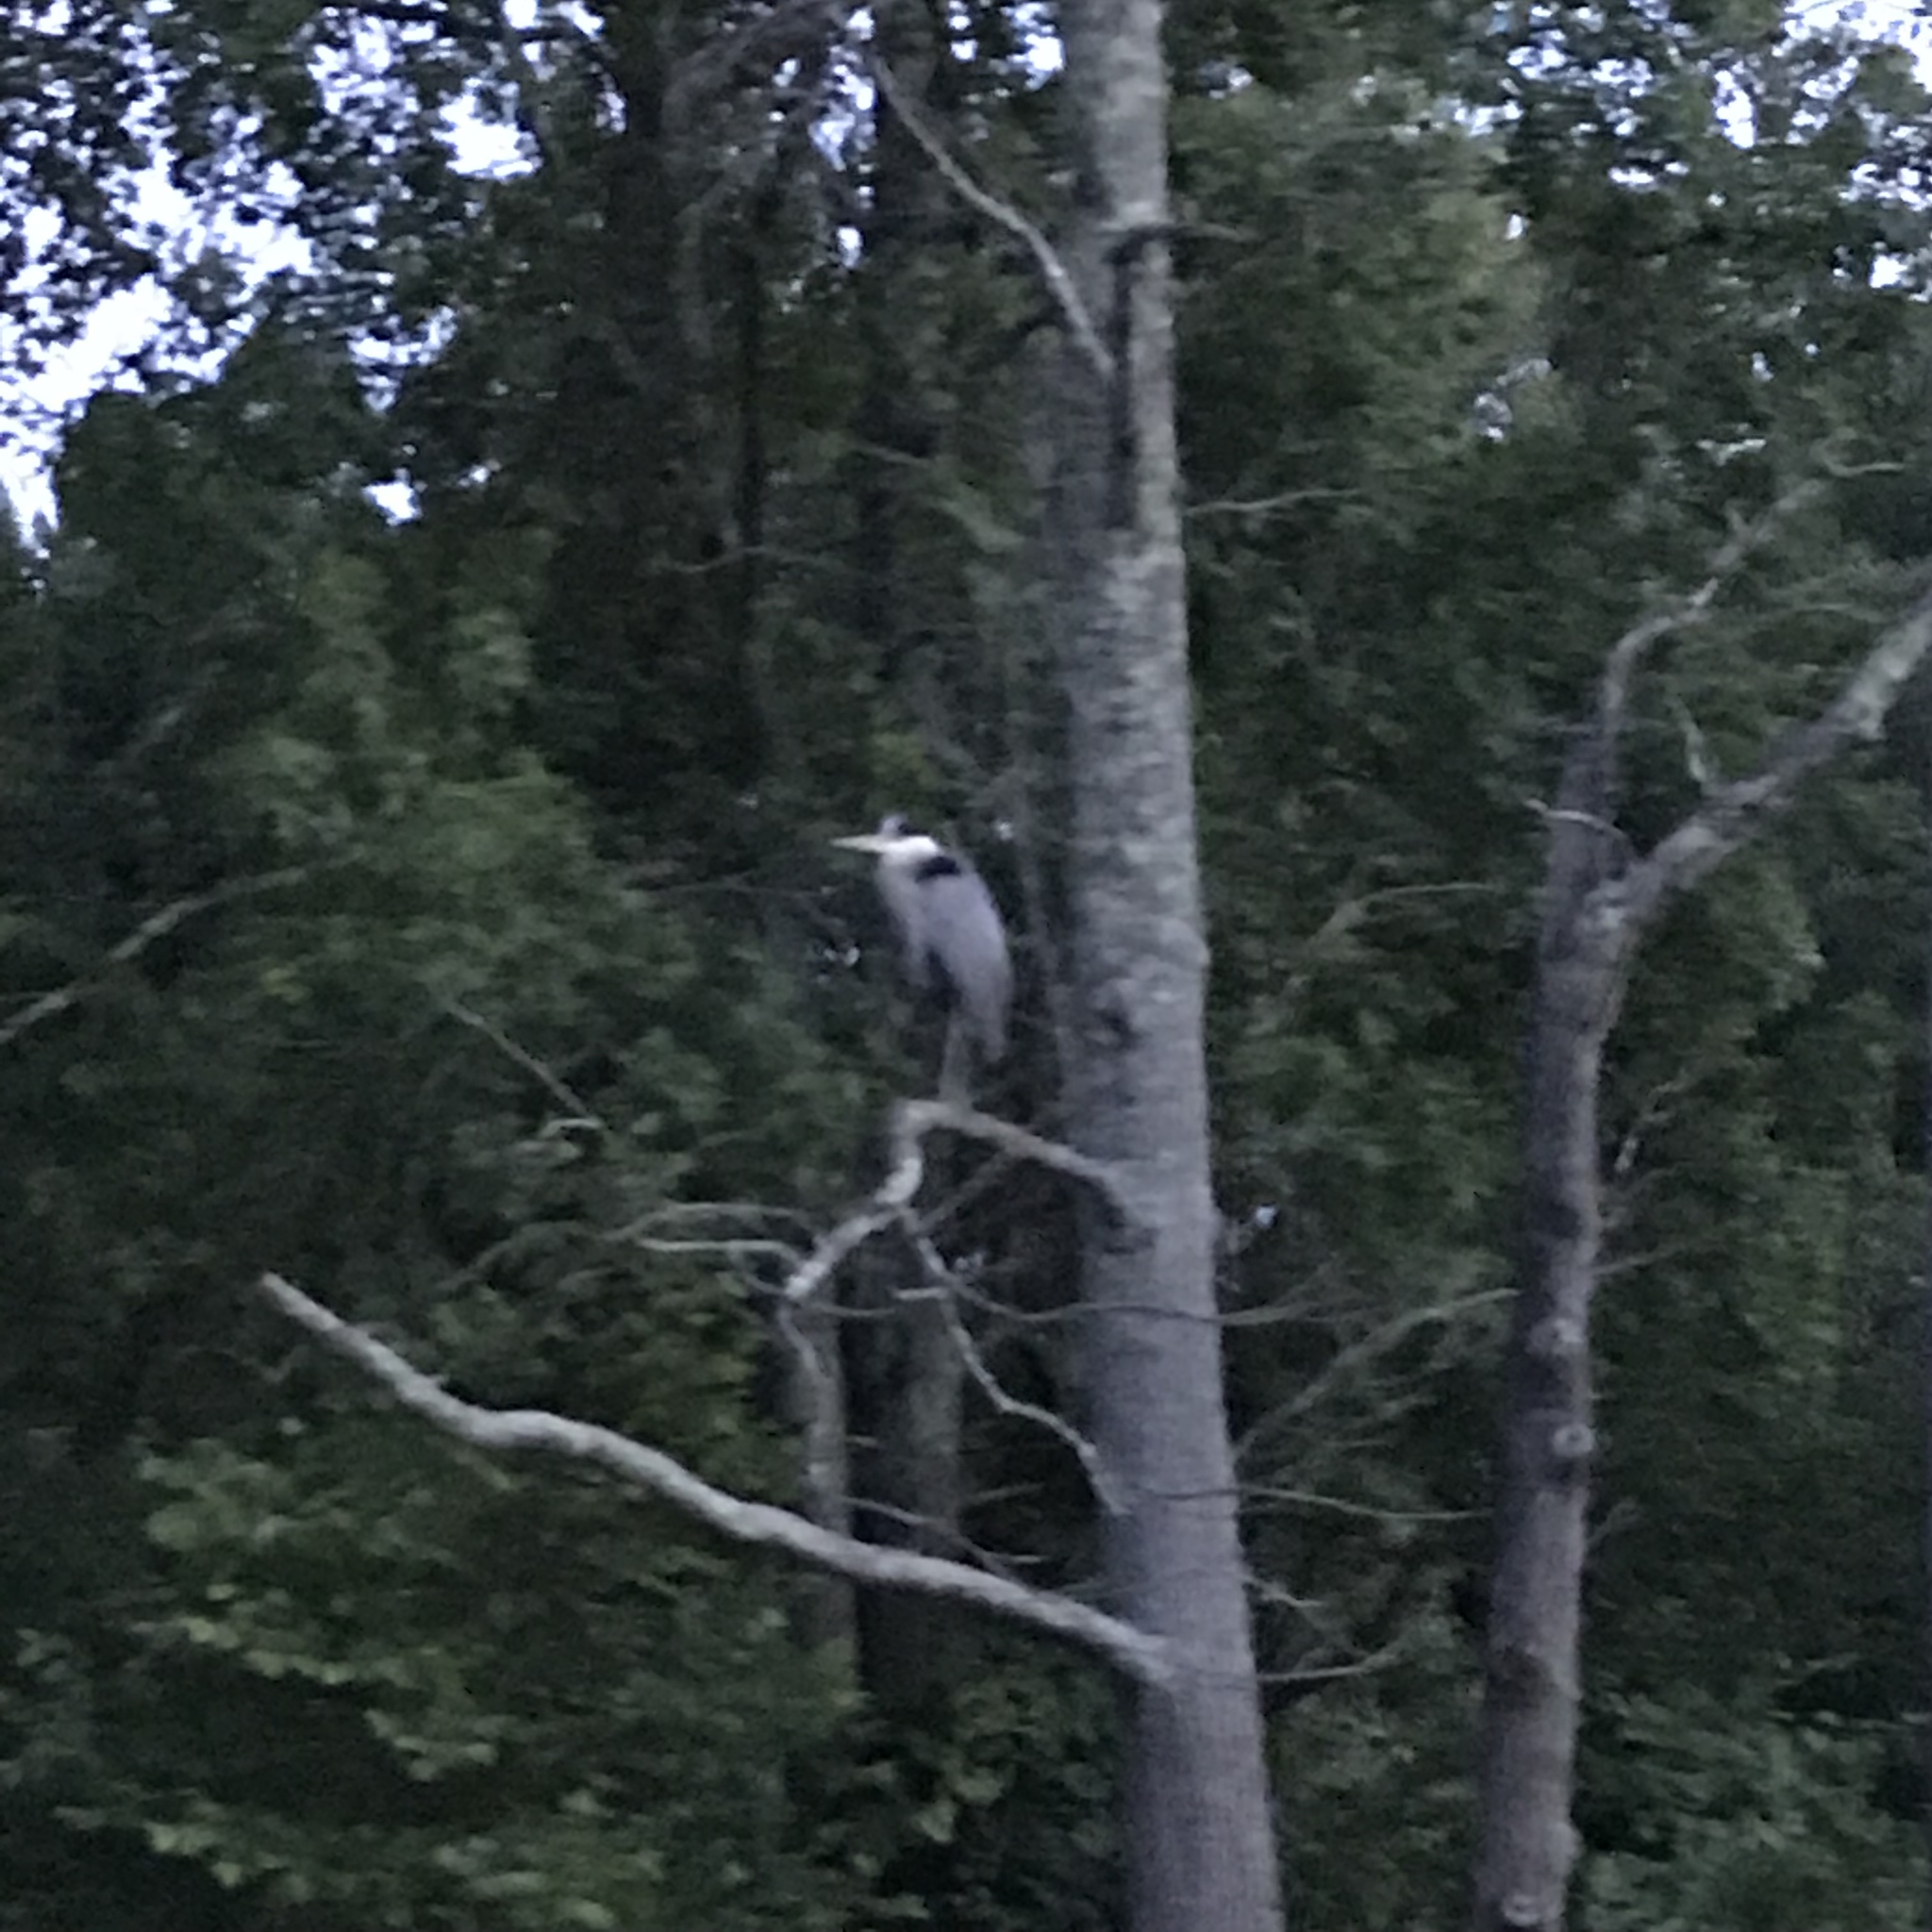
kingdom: Animalia
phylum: Chordata
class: Aves
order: Pelecaniformes
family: Ardeidae
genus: Ardea
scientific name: Ardea herodias
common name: Great blue heron
